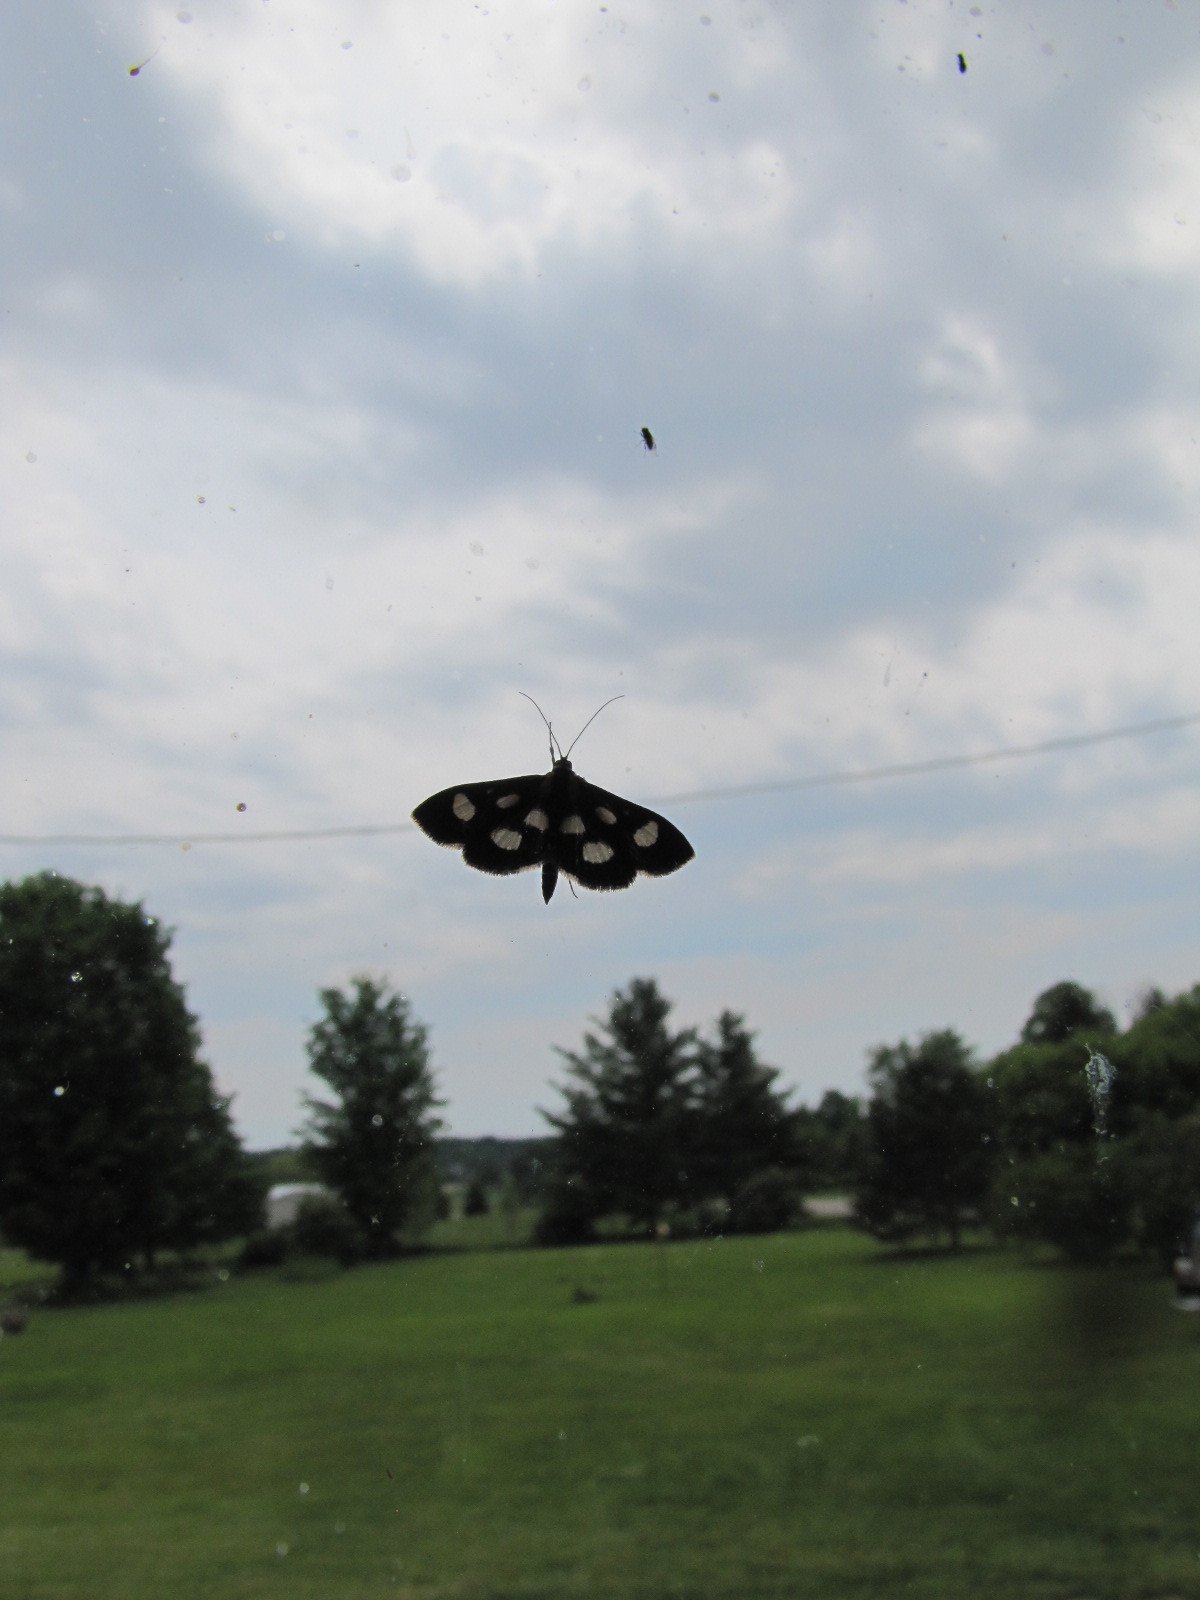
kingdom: Animalia
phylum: Arthropoda
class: Insecta
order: Lepidoptera
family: Crambidae
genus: Anania
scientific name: Anania funebris
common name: White-spotted sable moth
